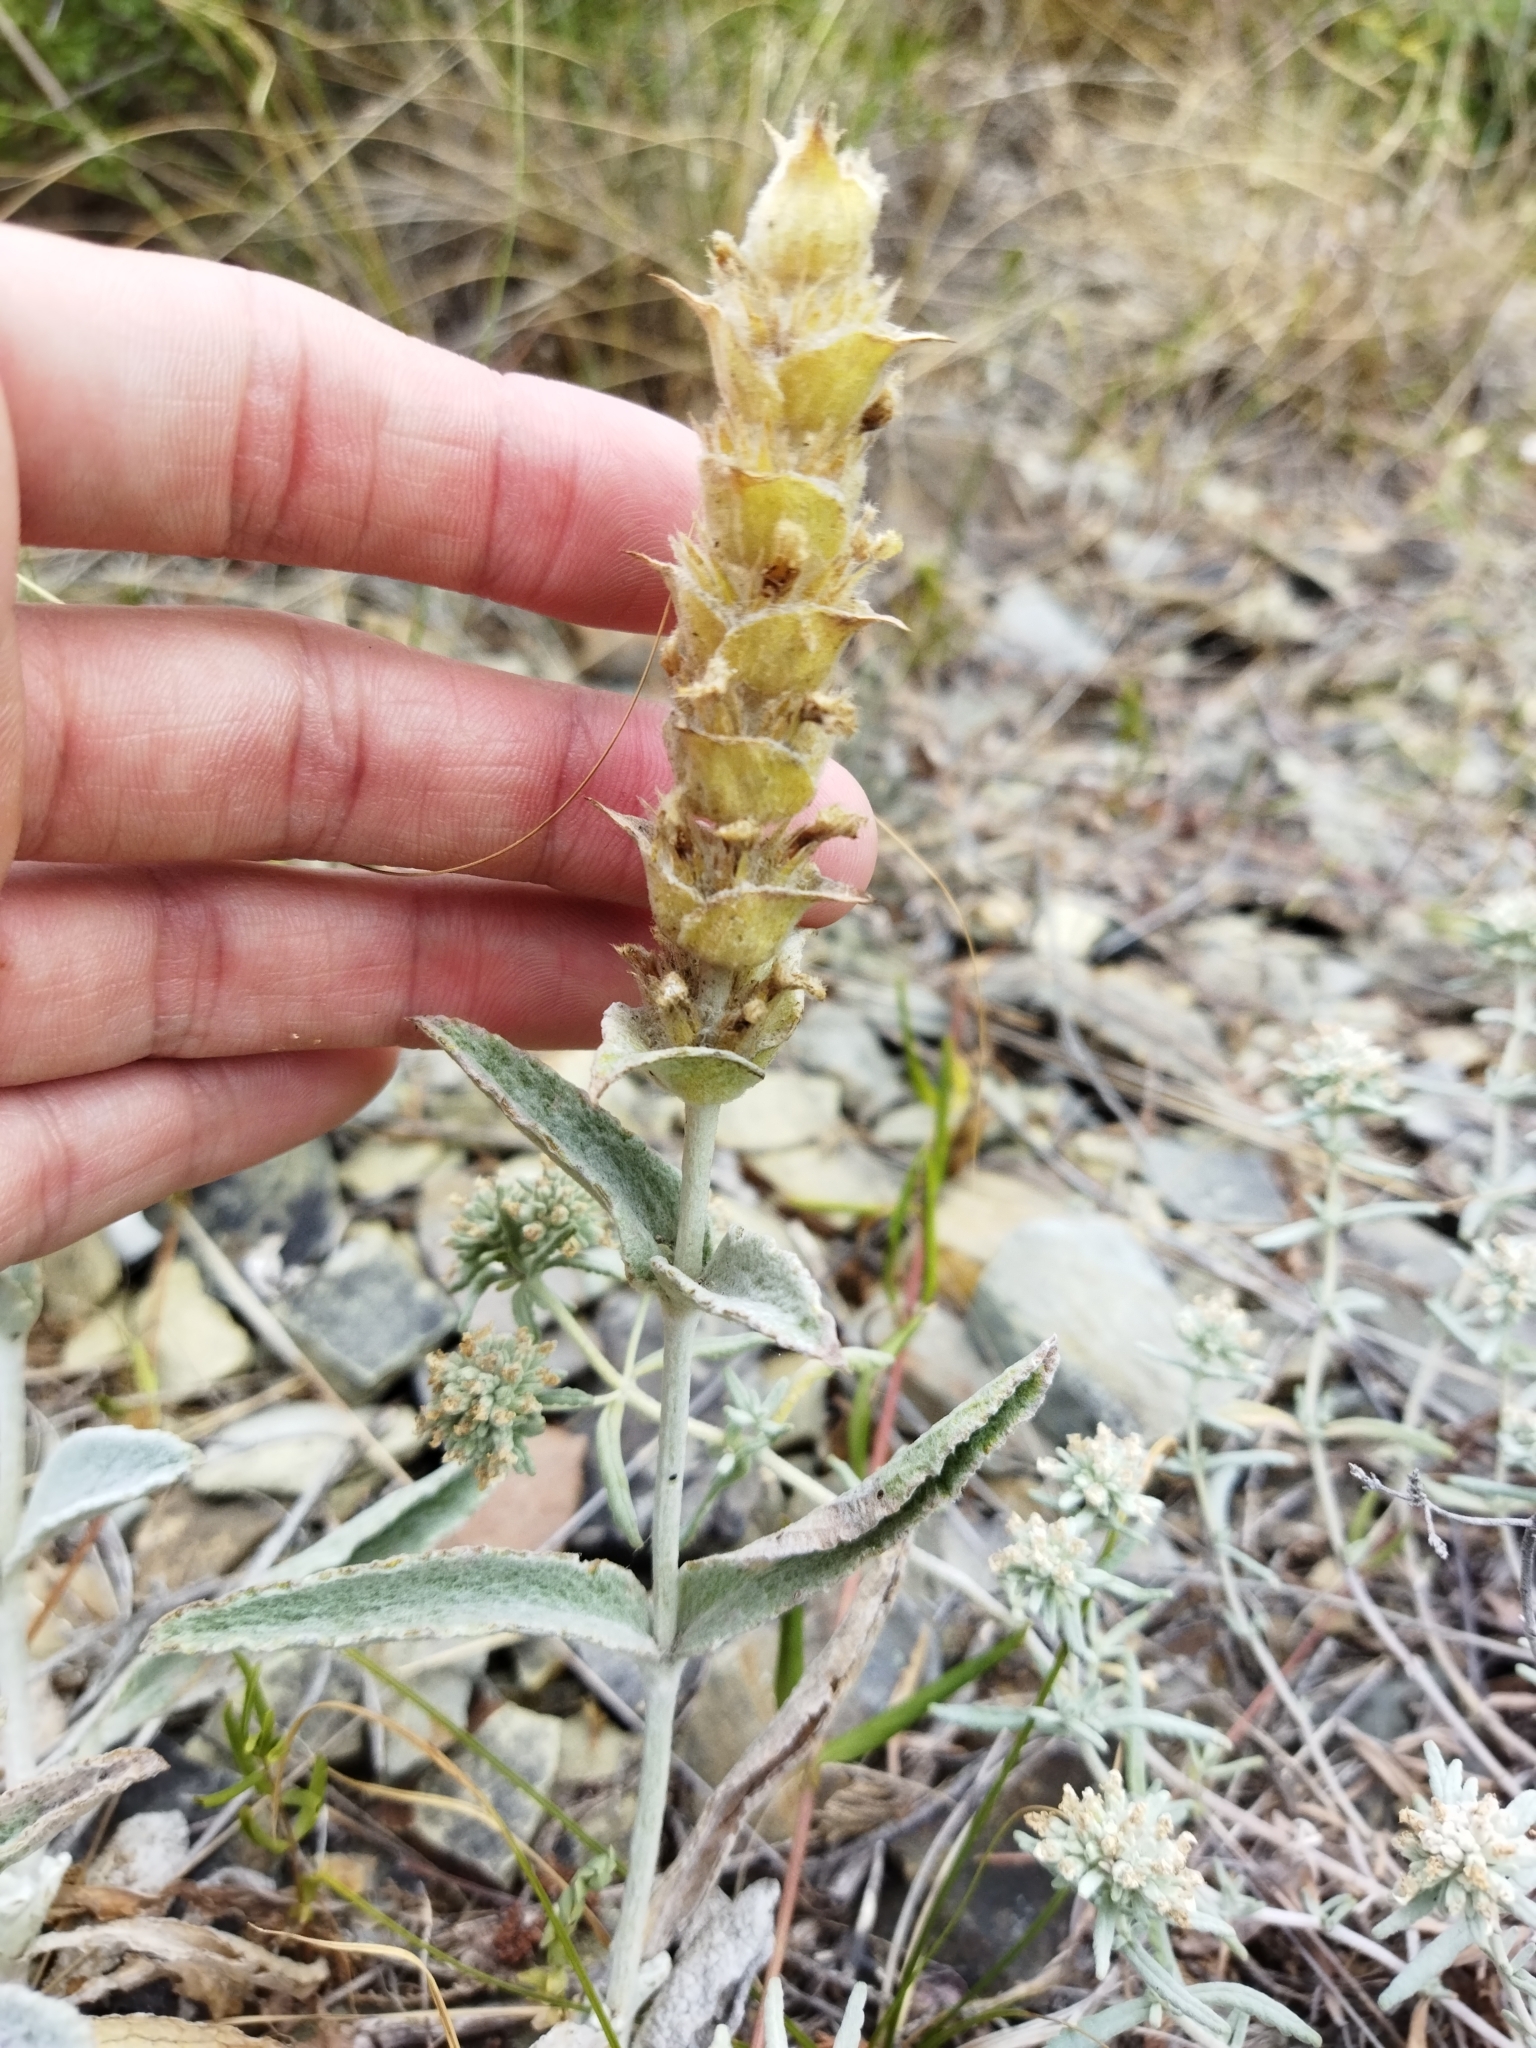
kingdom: Plantae
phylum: Tracheophyta
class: Magnoliopsida
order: Lamiales
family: Lamiaceae
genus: Sideritis
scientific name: Sideritis euxina
